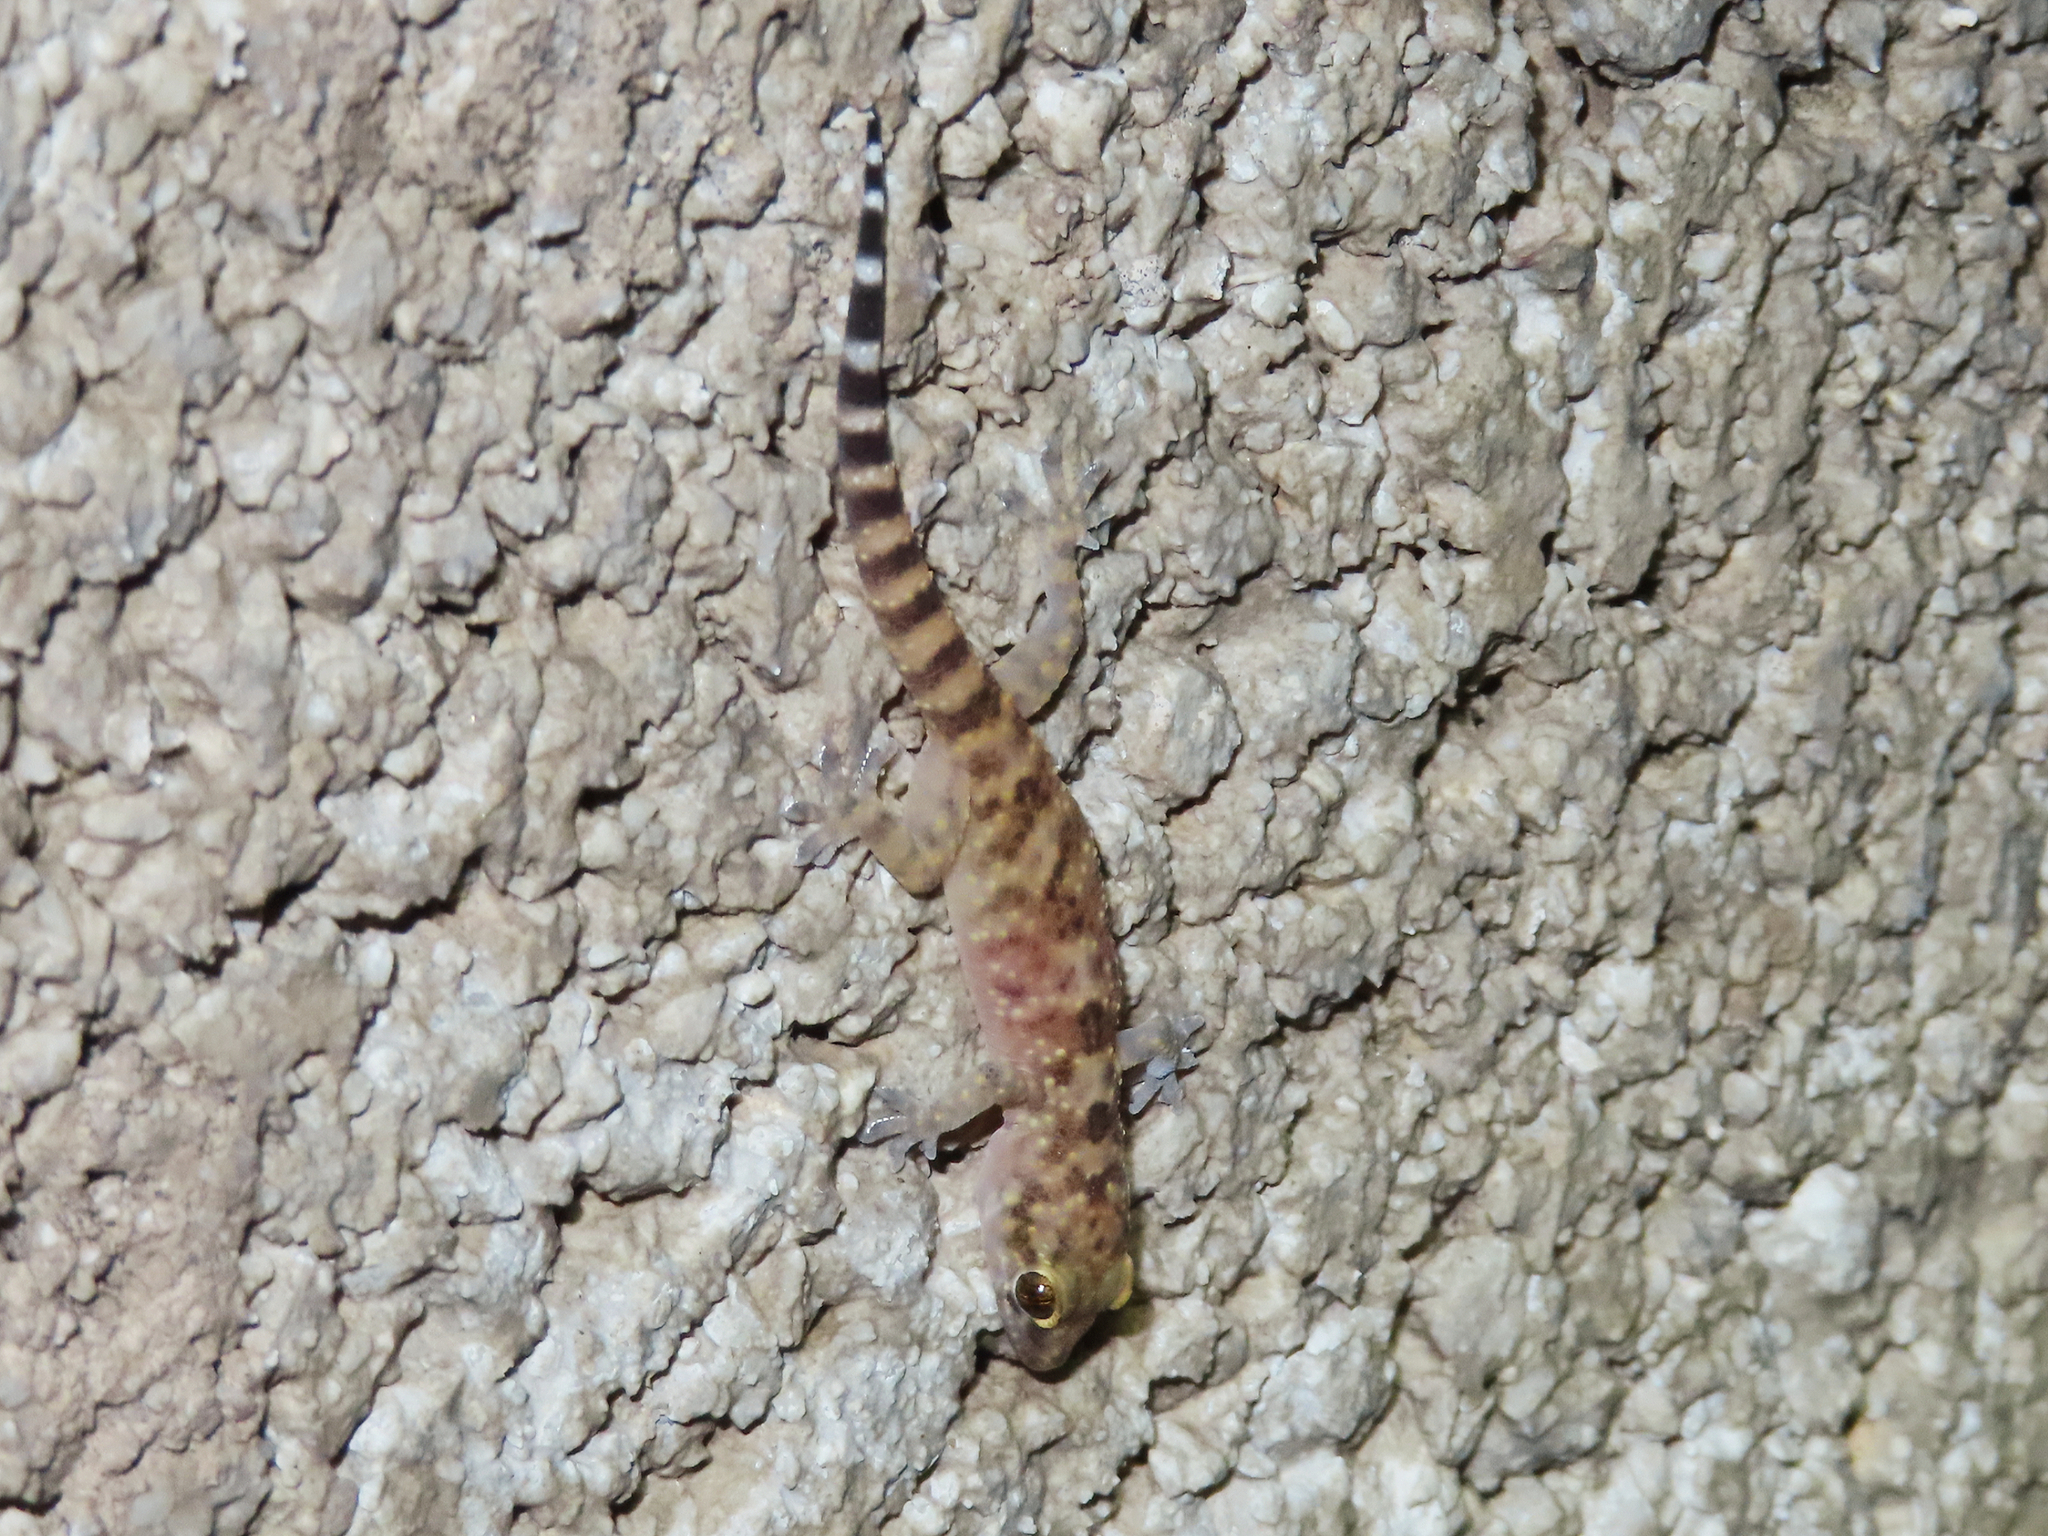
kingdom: Animalia
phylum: Chordata
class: Squamata
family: Gekkonidae
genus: Hemidactylus
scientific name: Hemidactylus turcicus
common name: Turkish gecko
